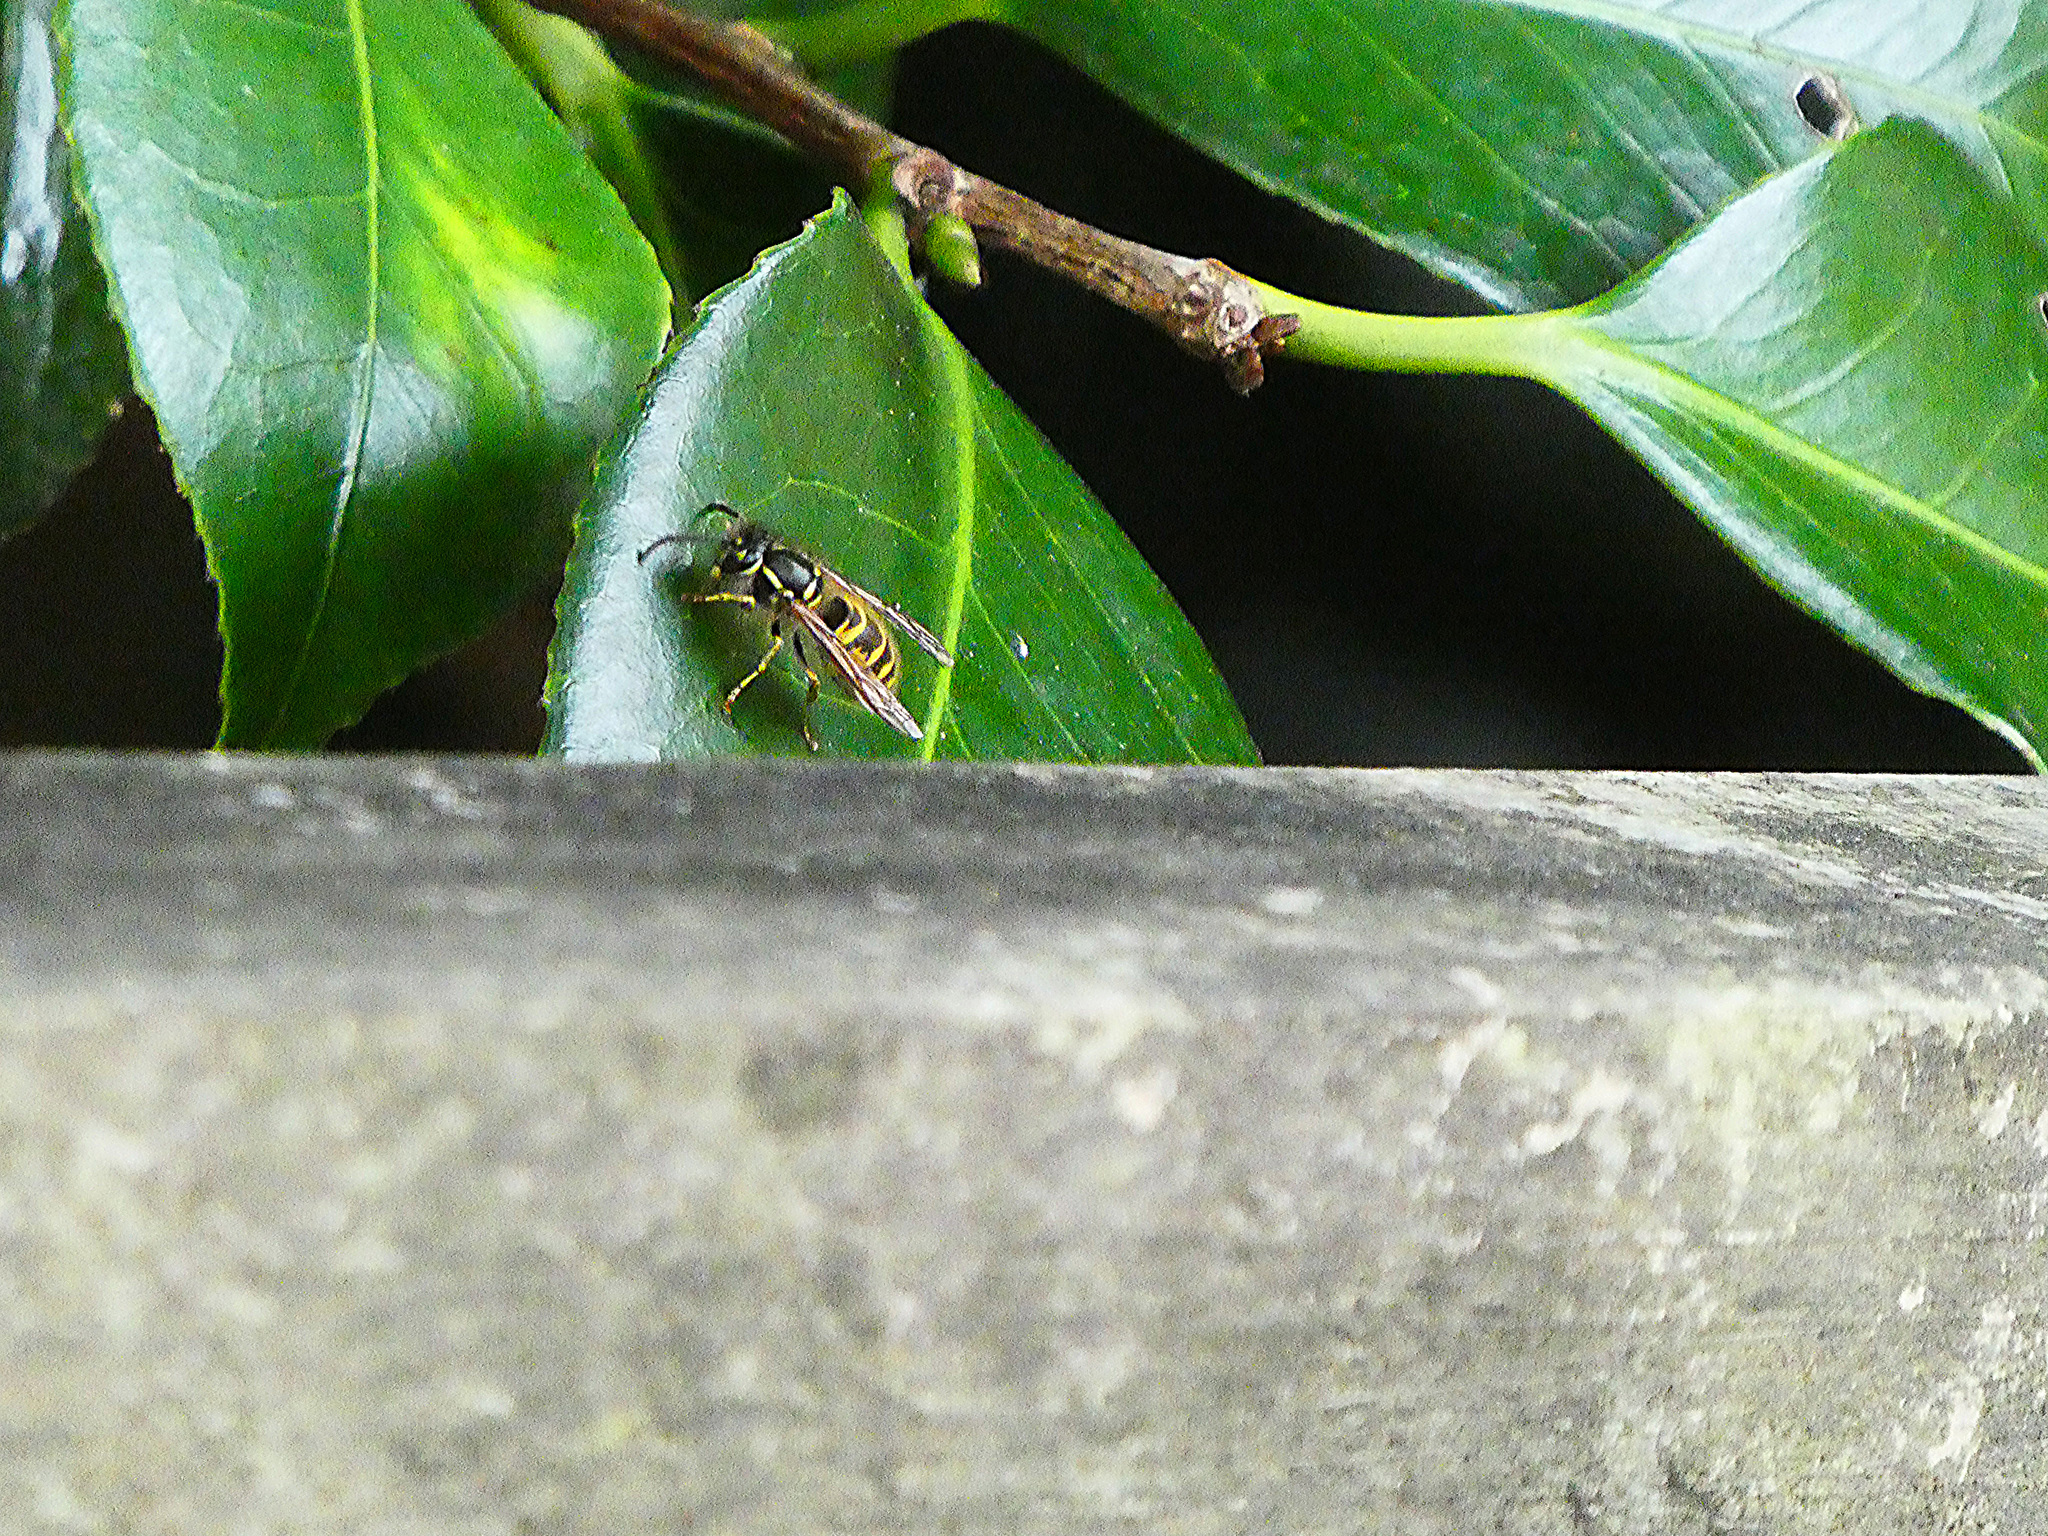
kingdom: Animalia
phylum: Arthropoda
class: Insecta
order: Hymenoptera
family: Vespidae
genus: Vespula
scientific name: Vespula vulgaris
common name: Common wasp
